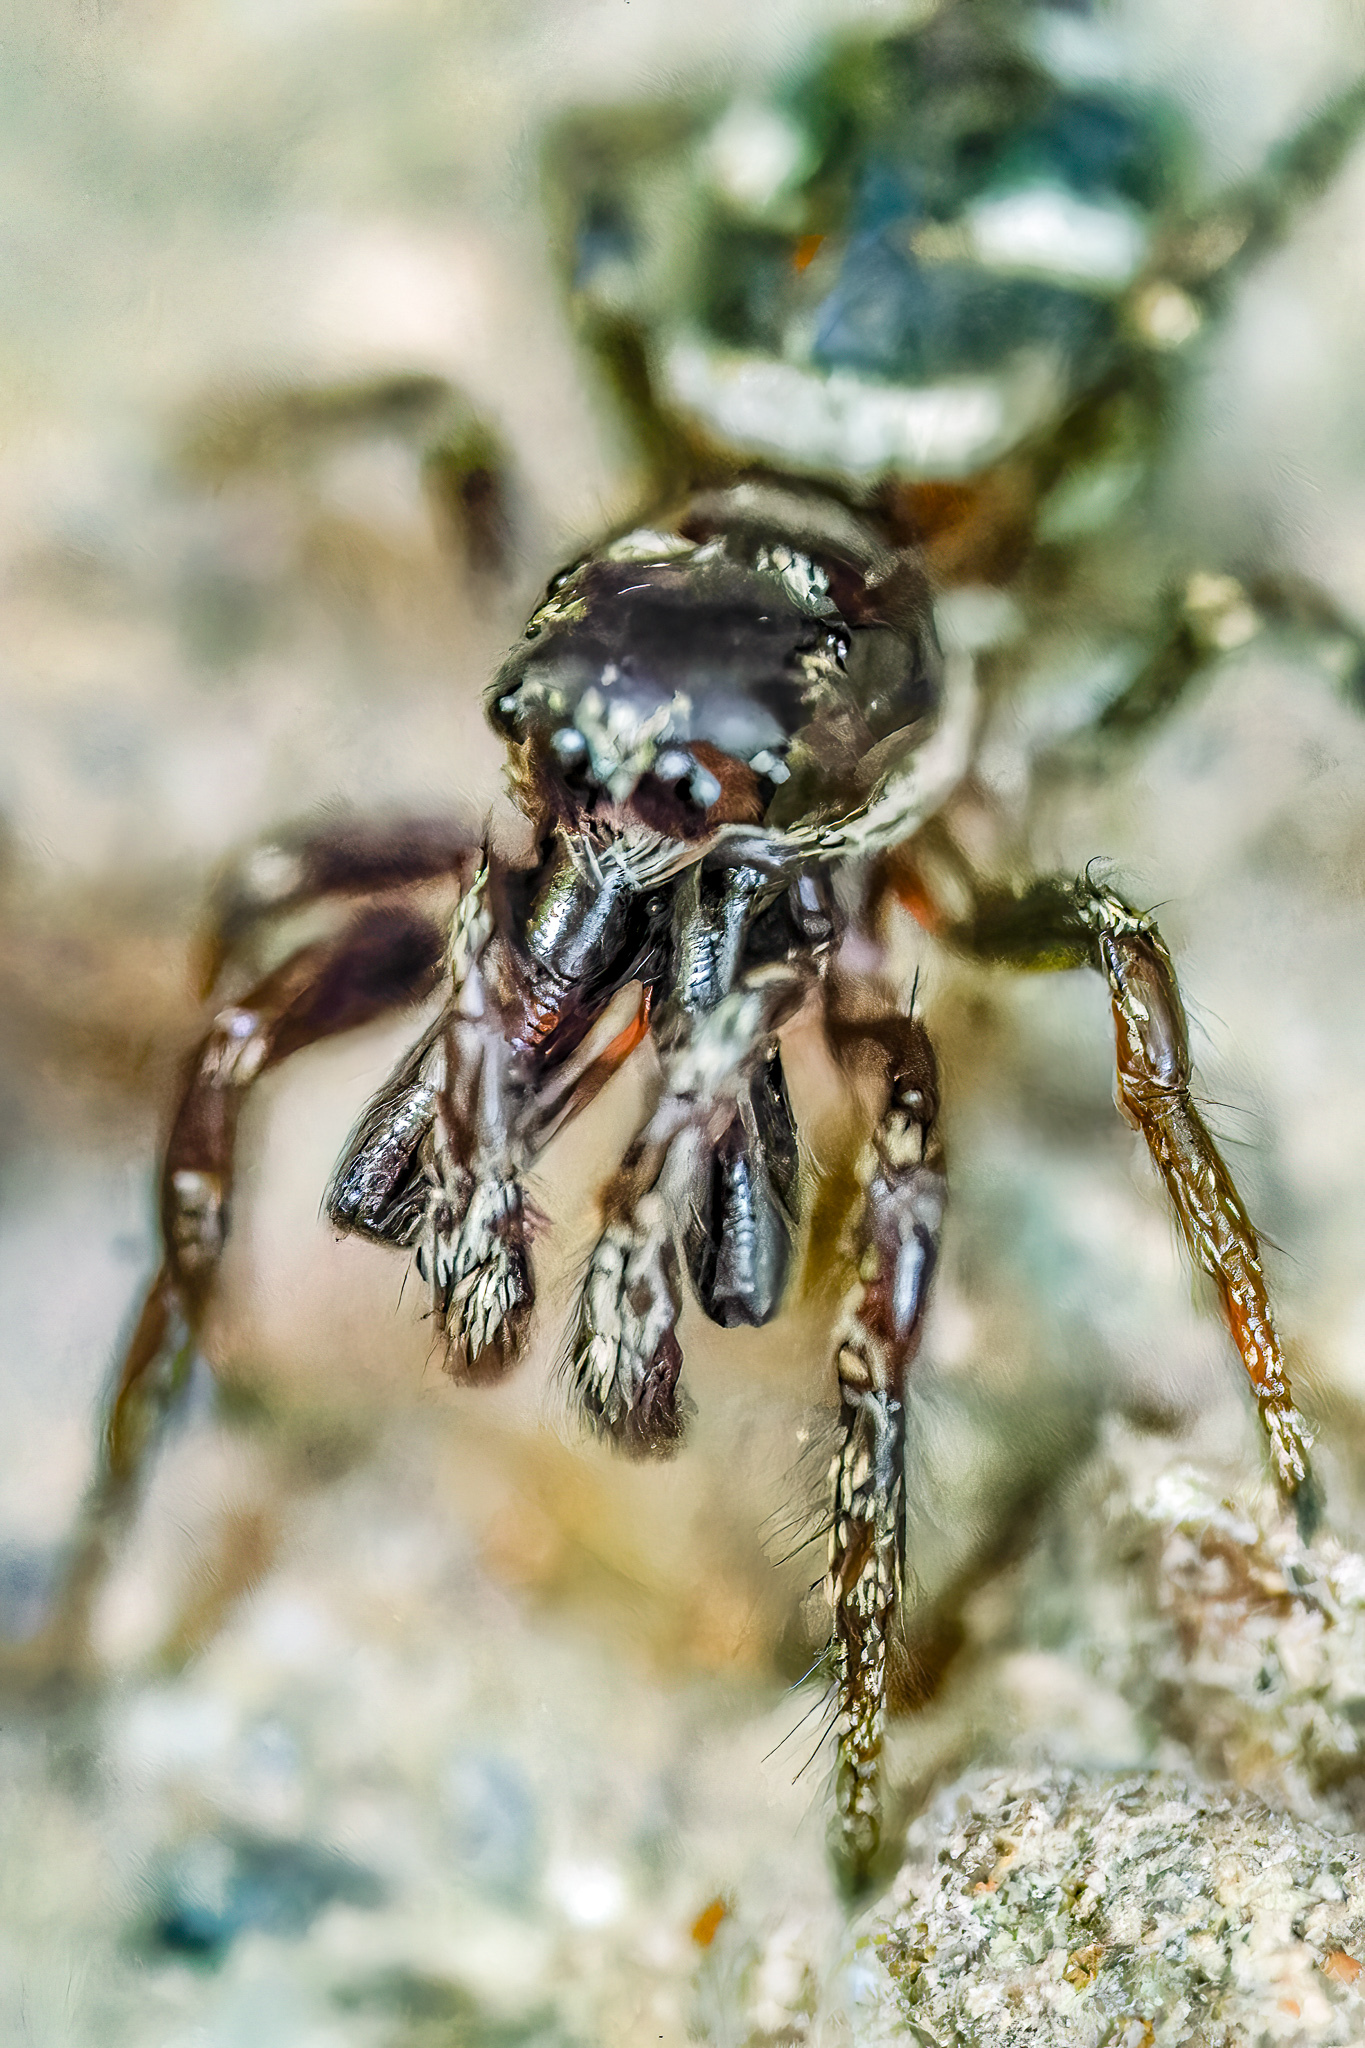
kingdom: Animalia
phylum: Arthropoda
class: Arachnida
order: Araneae
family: Salticidae
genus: Salticus
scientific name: Salticus scenicus
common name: Zebra jumper
